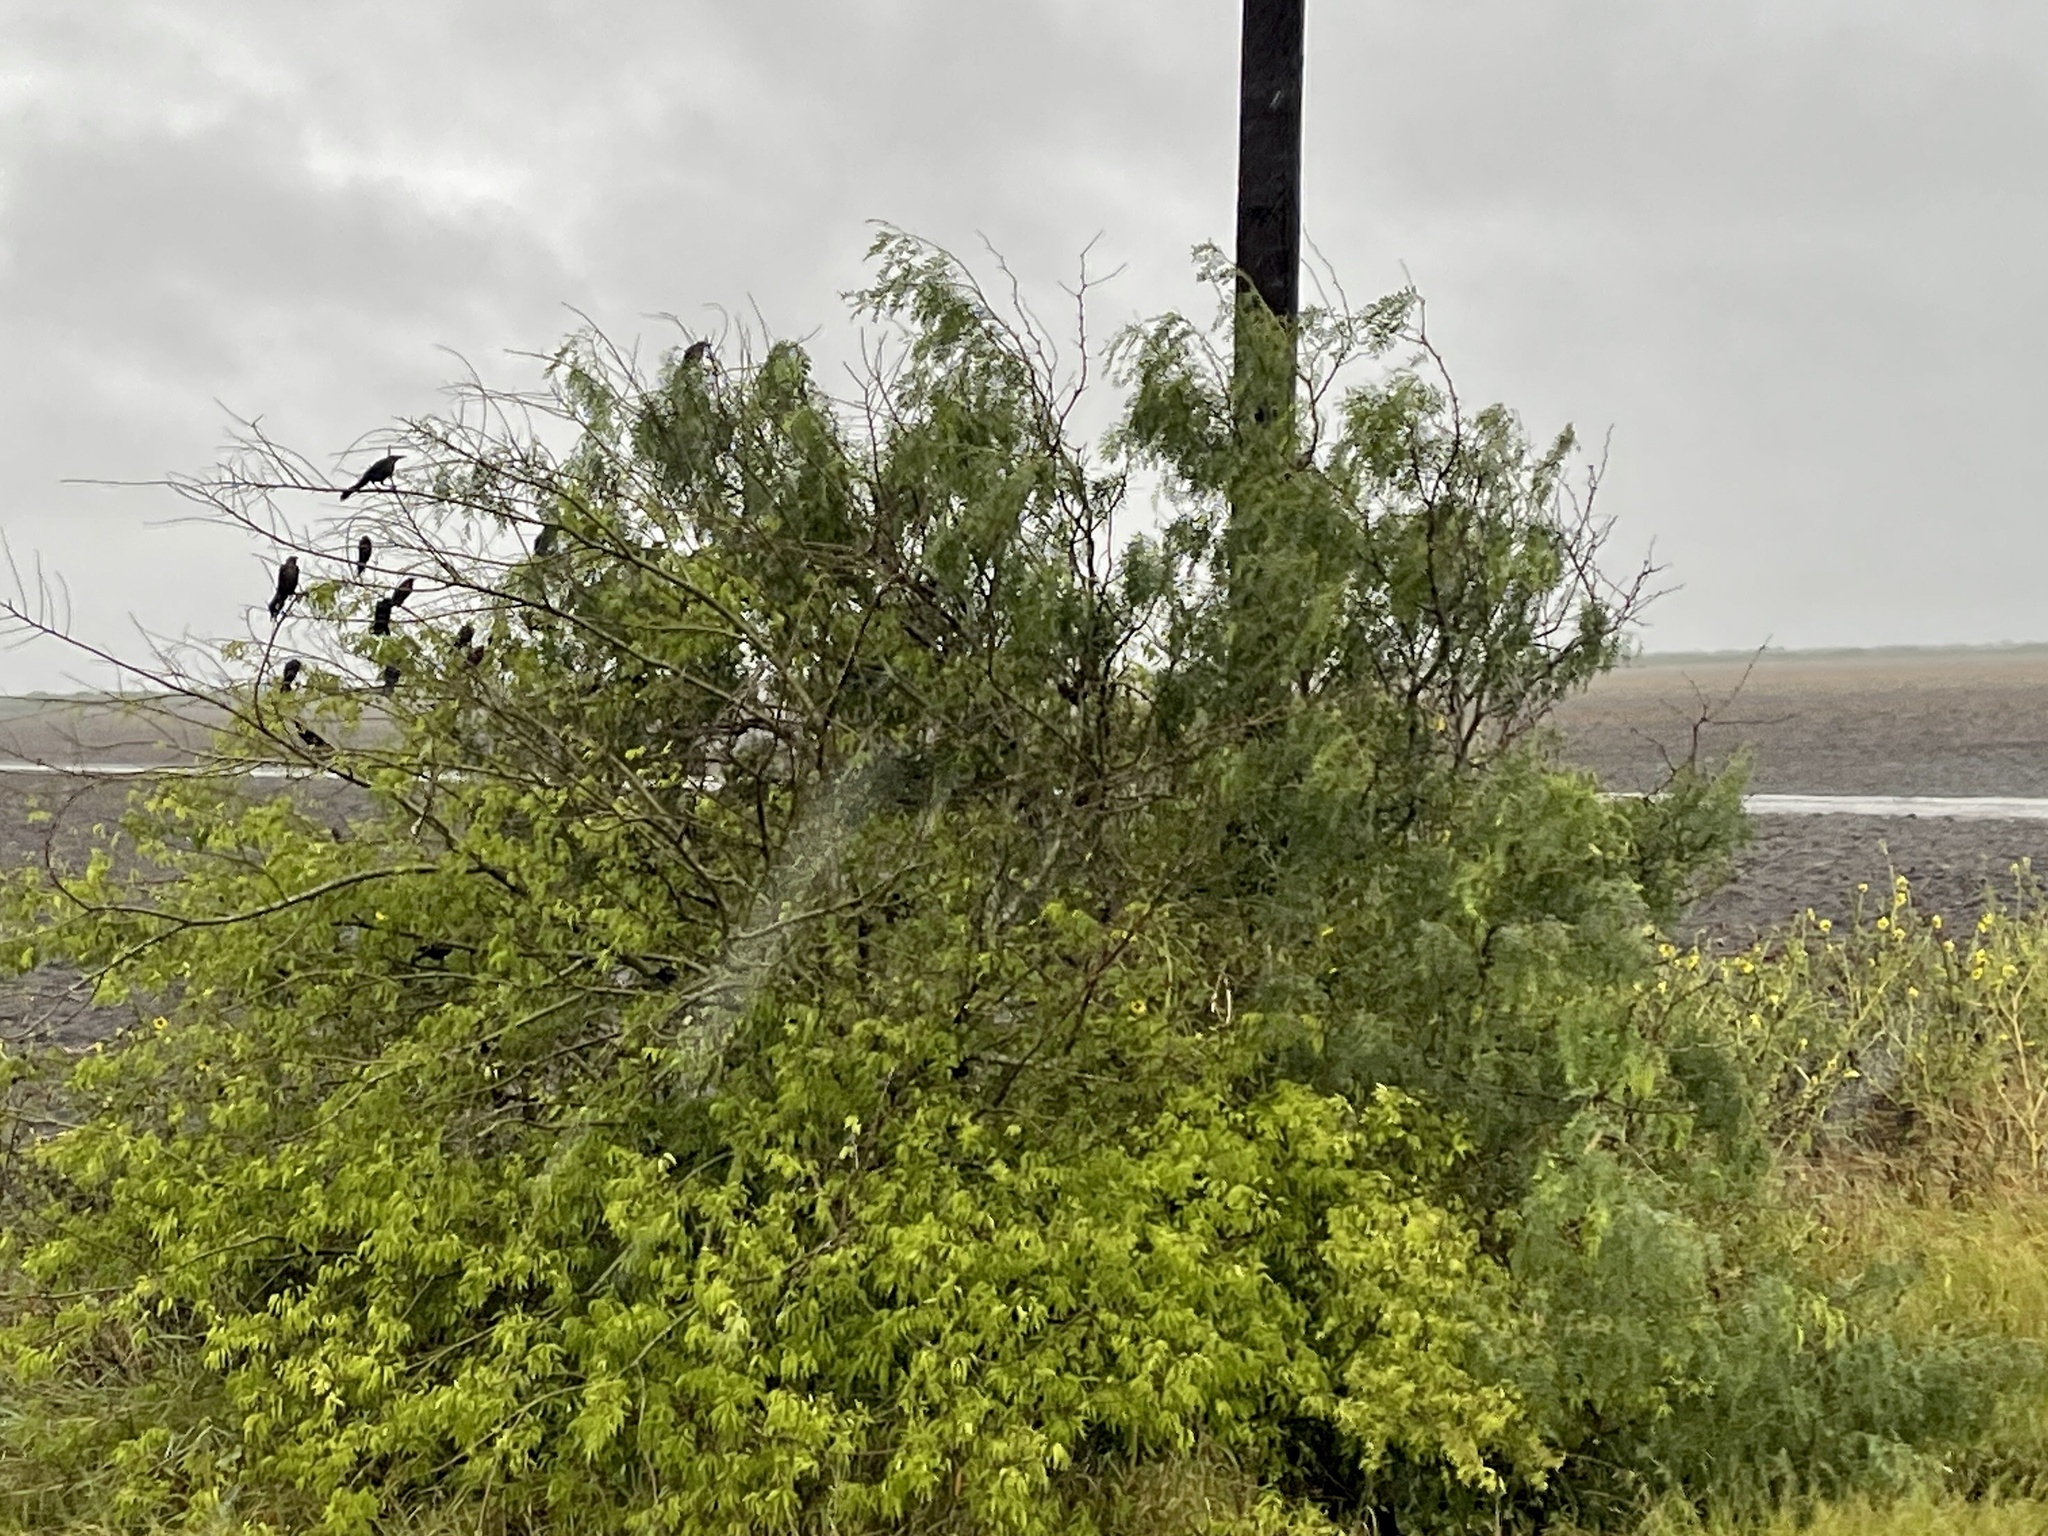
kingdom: Plantae
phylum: Tracheophyta
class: Magnoliopsida
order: Fabales
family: Fabaceae
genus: Prosopis
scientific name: Prosopis glandulosa
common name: Honey mesquite
